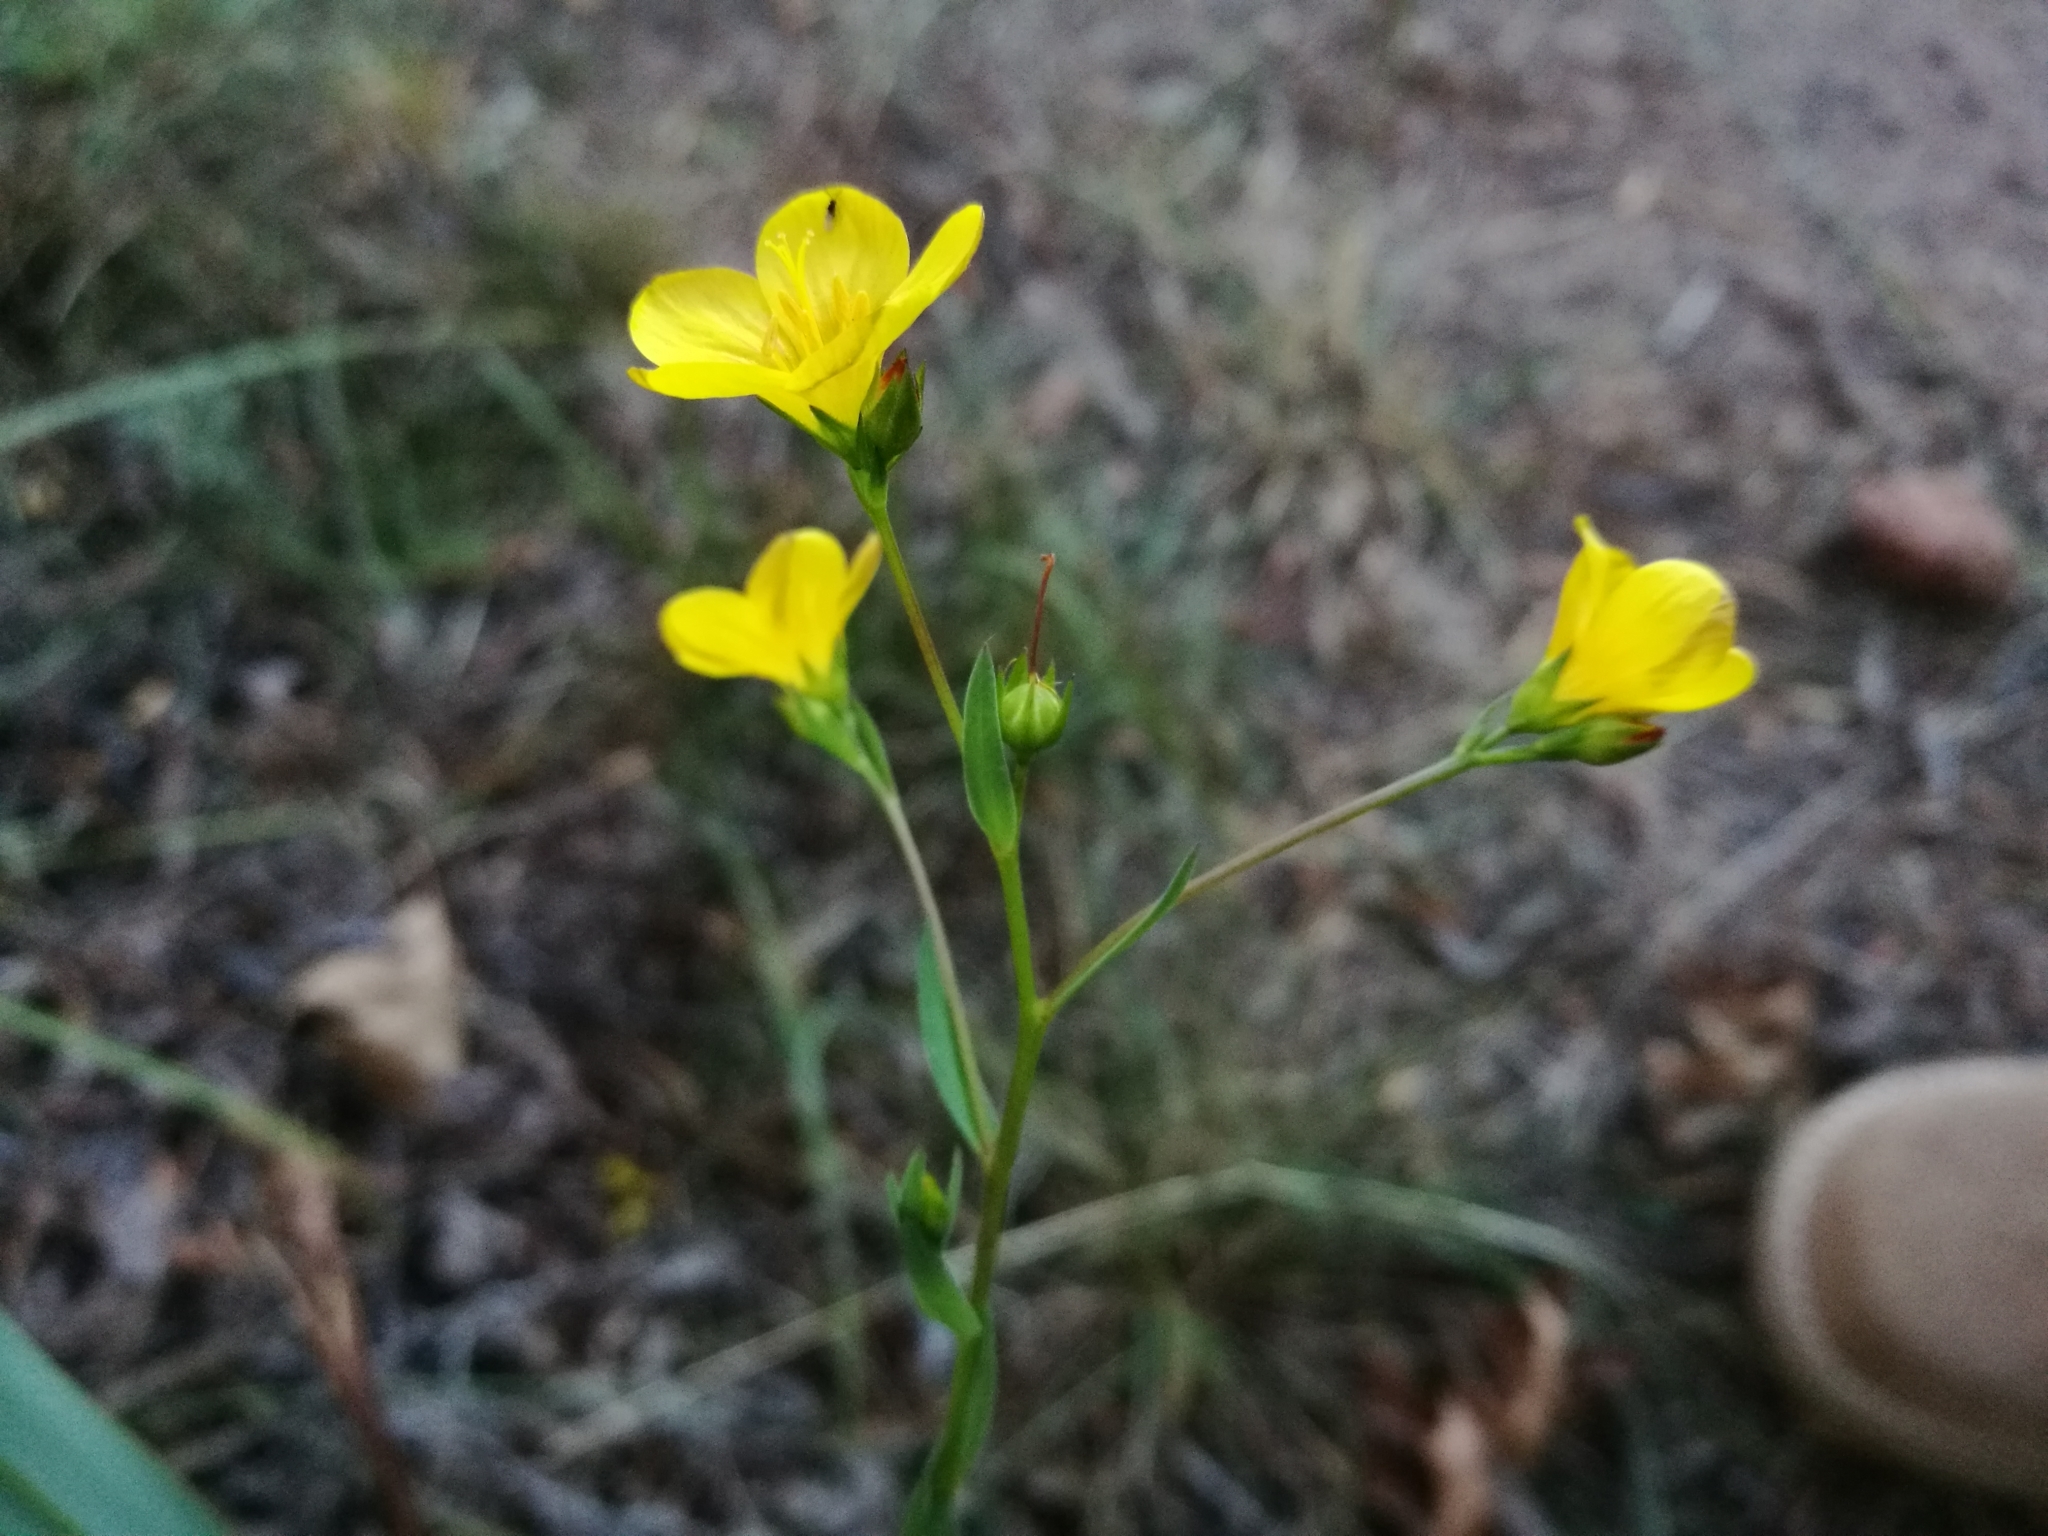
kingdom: Plantae
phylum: Tracheophyta
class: Magnoliopsida
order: Malpighiales
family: Linaceae
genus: Linum
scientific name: Linum africanum
